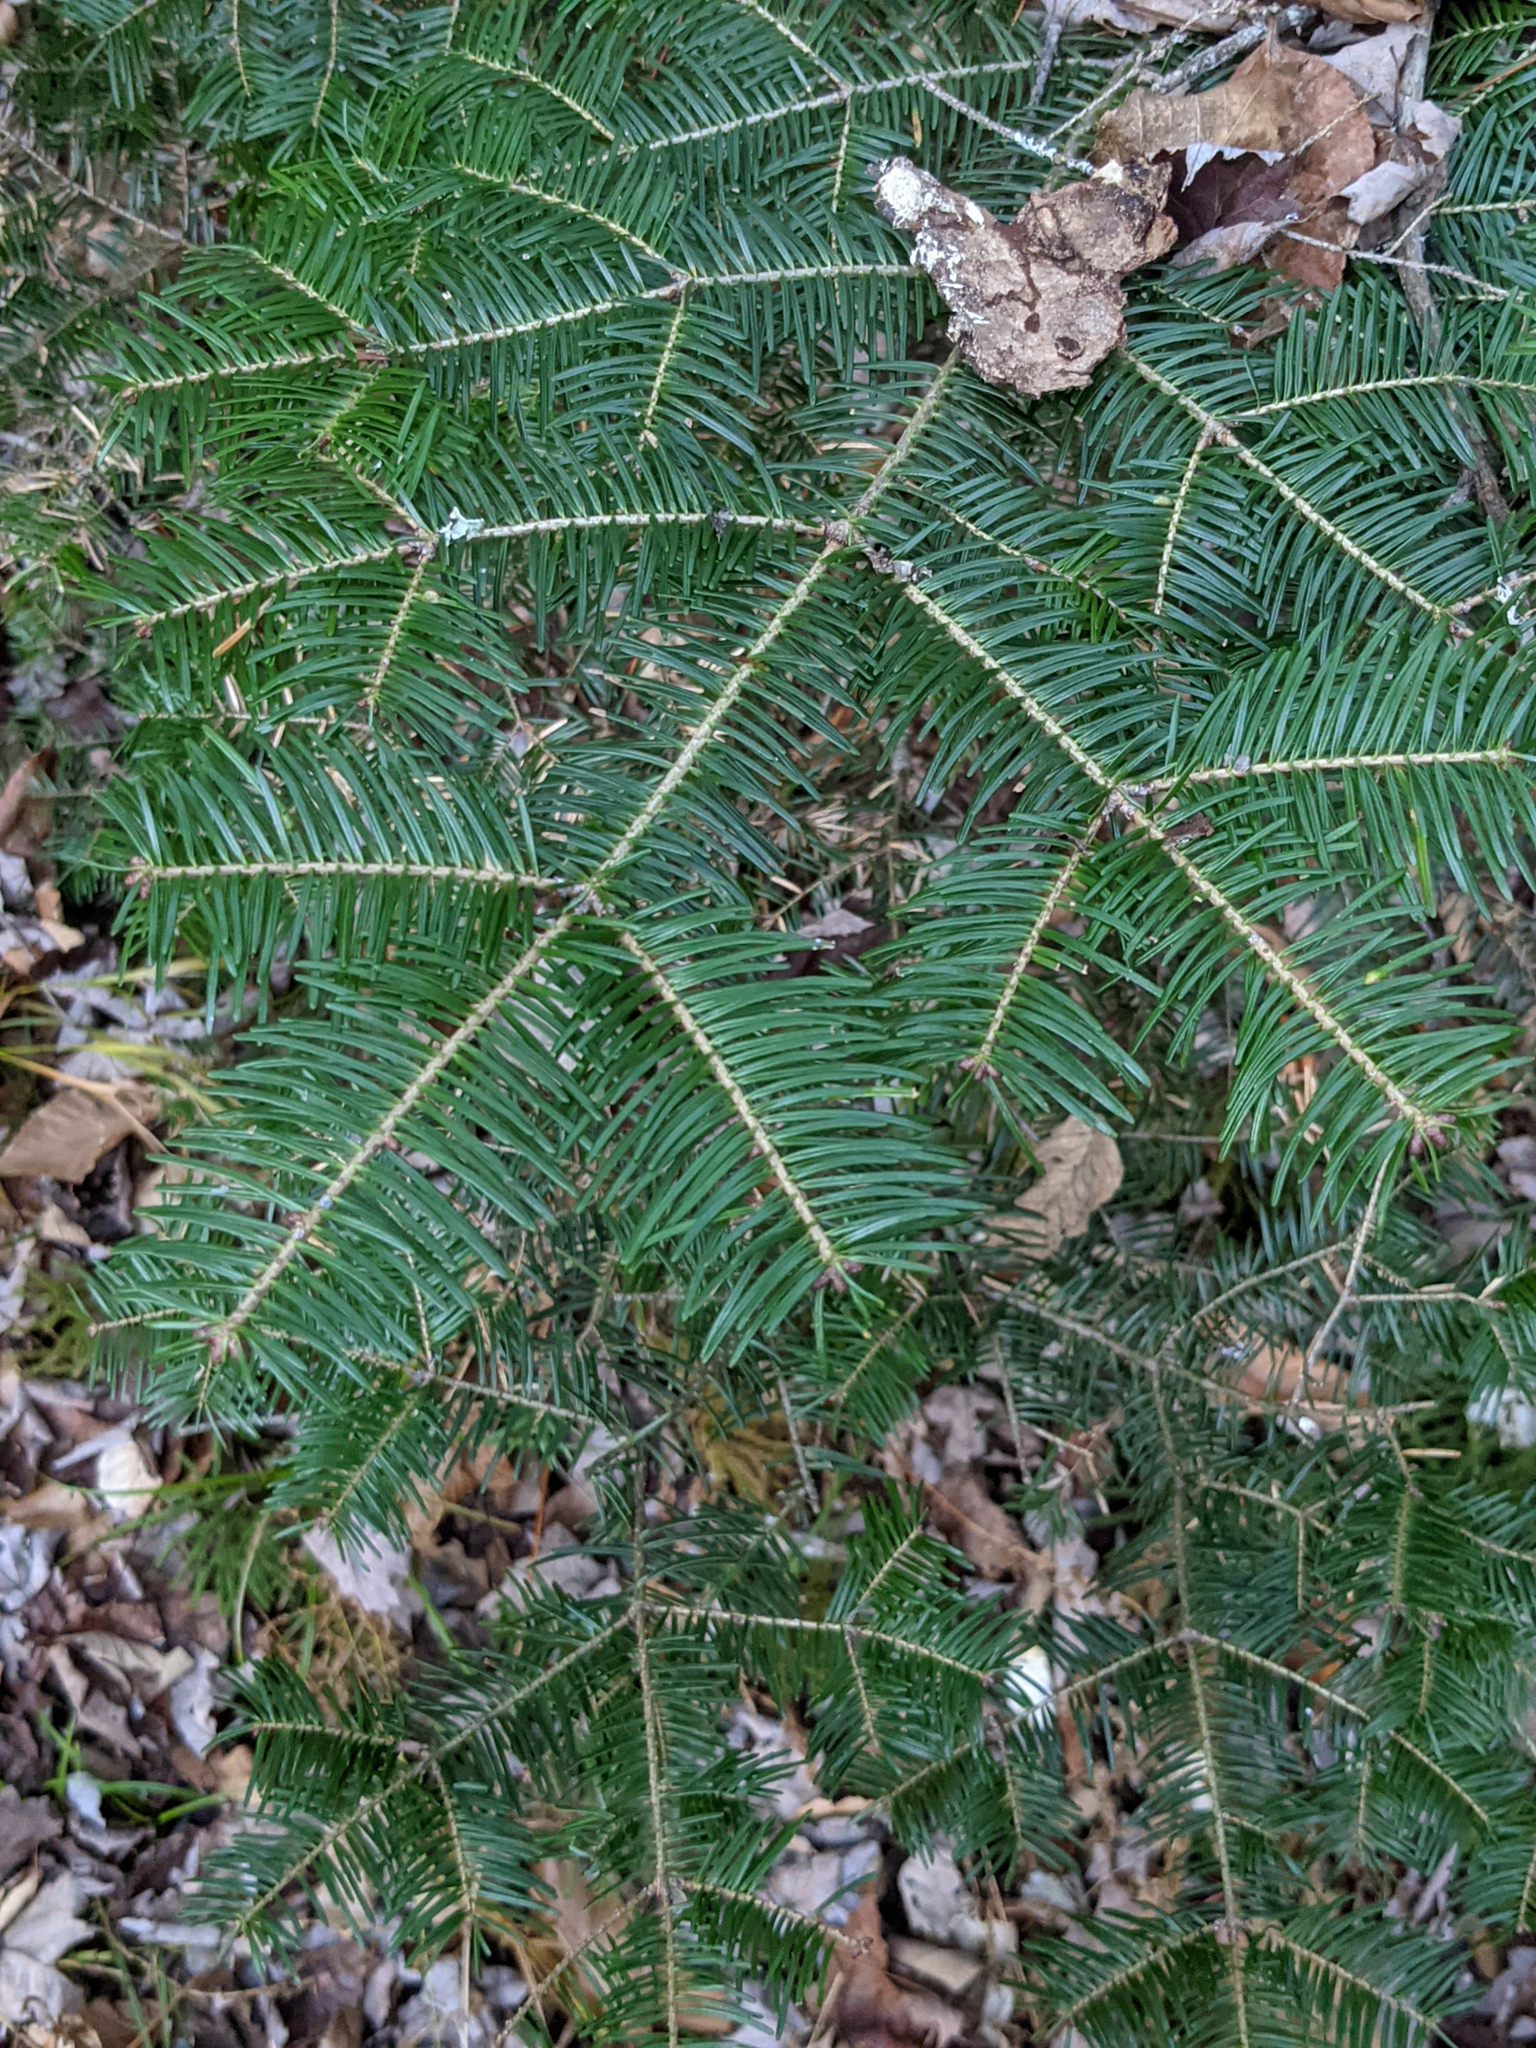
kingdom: Plantae
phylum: Tracheophyta
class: Pinopsida
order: Pinales
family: Pinaceae
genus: Abies
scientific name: Abies balsamea
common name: Balsam fir
